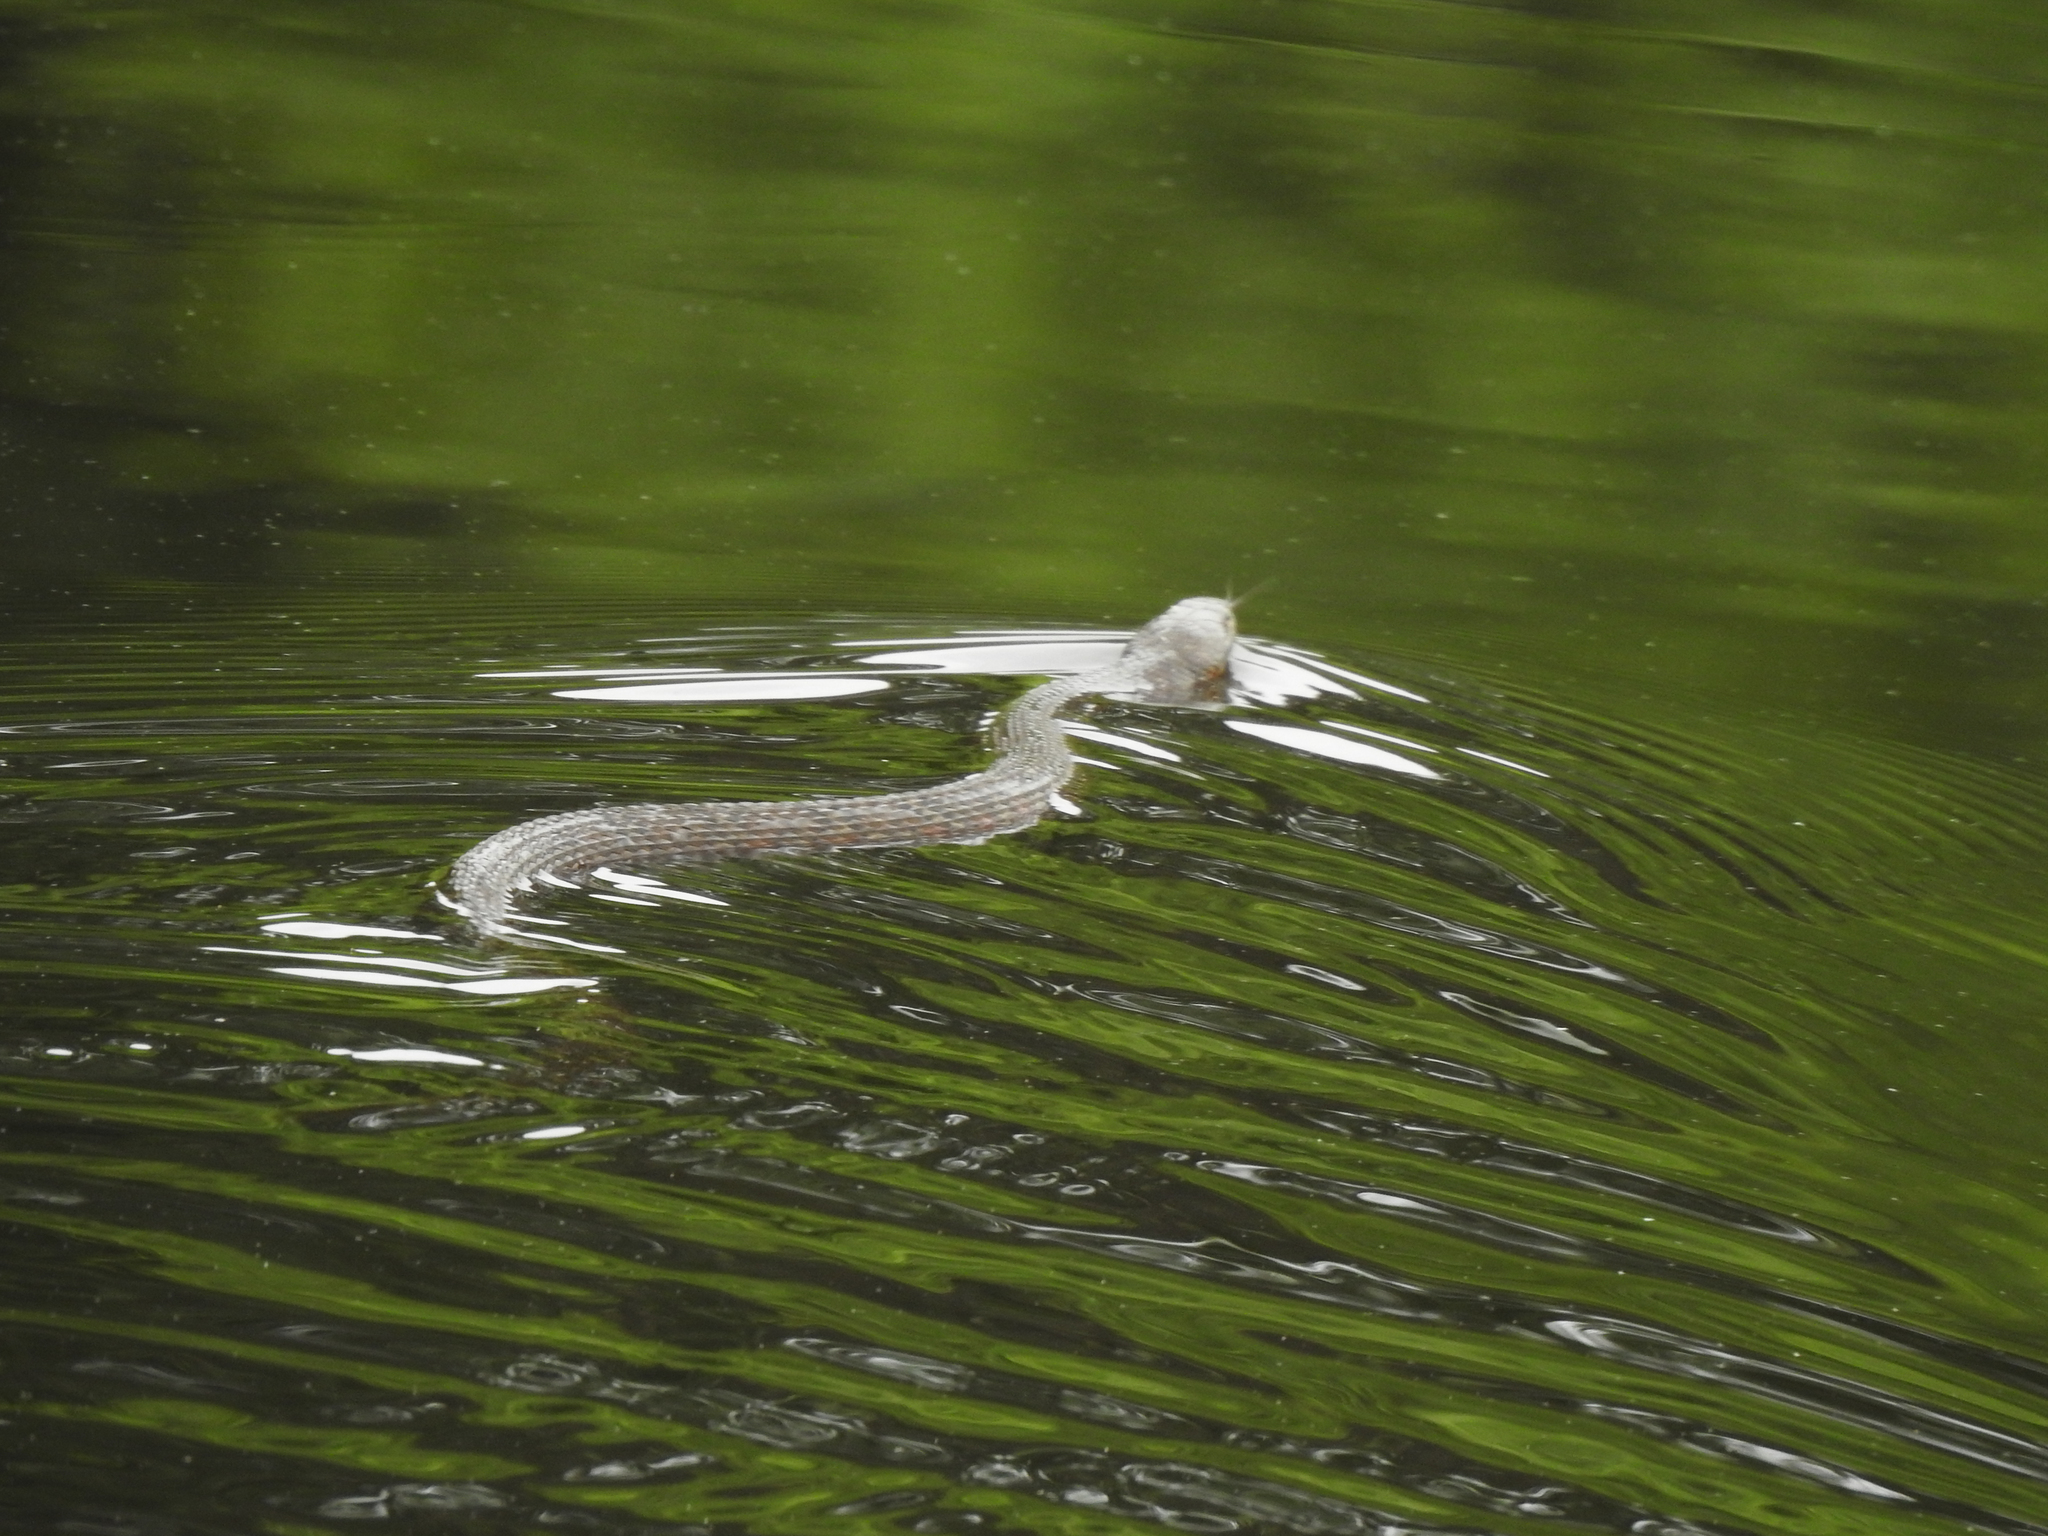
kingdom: Animalia
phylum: Chordata
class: Squamata
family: Colubridae
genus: Nerodia
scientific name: Nerodia sipedon
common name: Northern water snake
